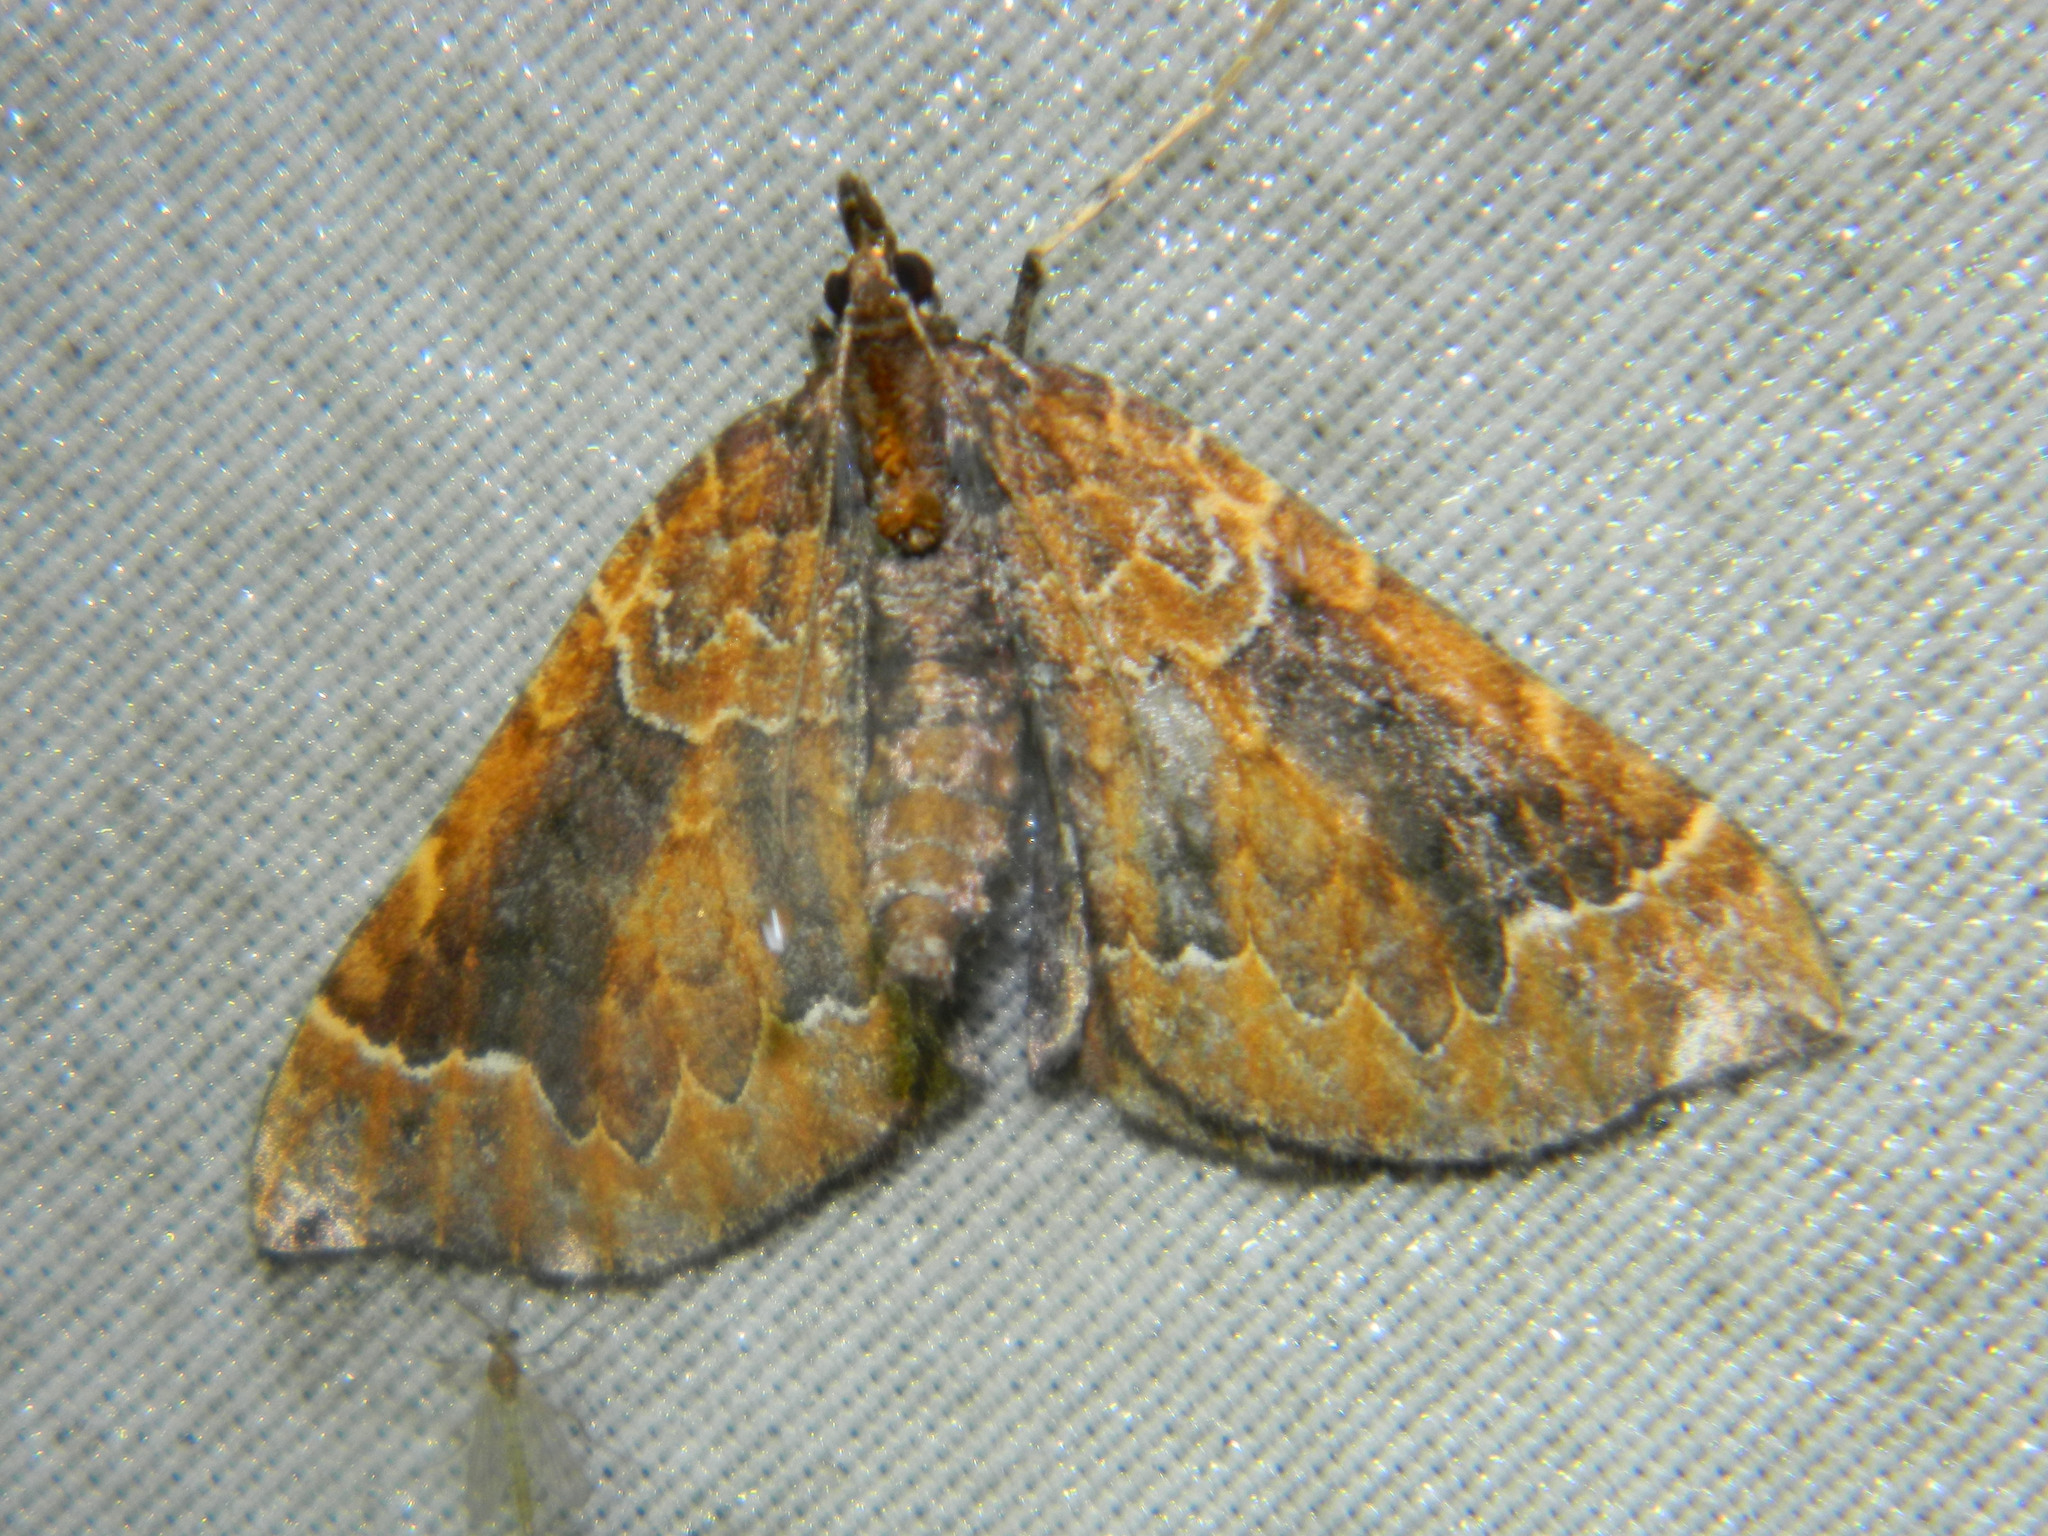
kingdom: Animalia
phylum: Arthropoda
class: Insecta
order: Lepidoptera
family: Geometridae
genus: Eulithis
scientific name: Eulithis flavibrunneata
